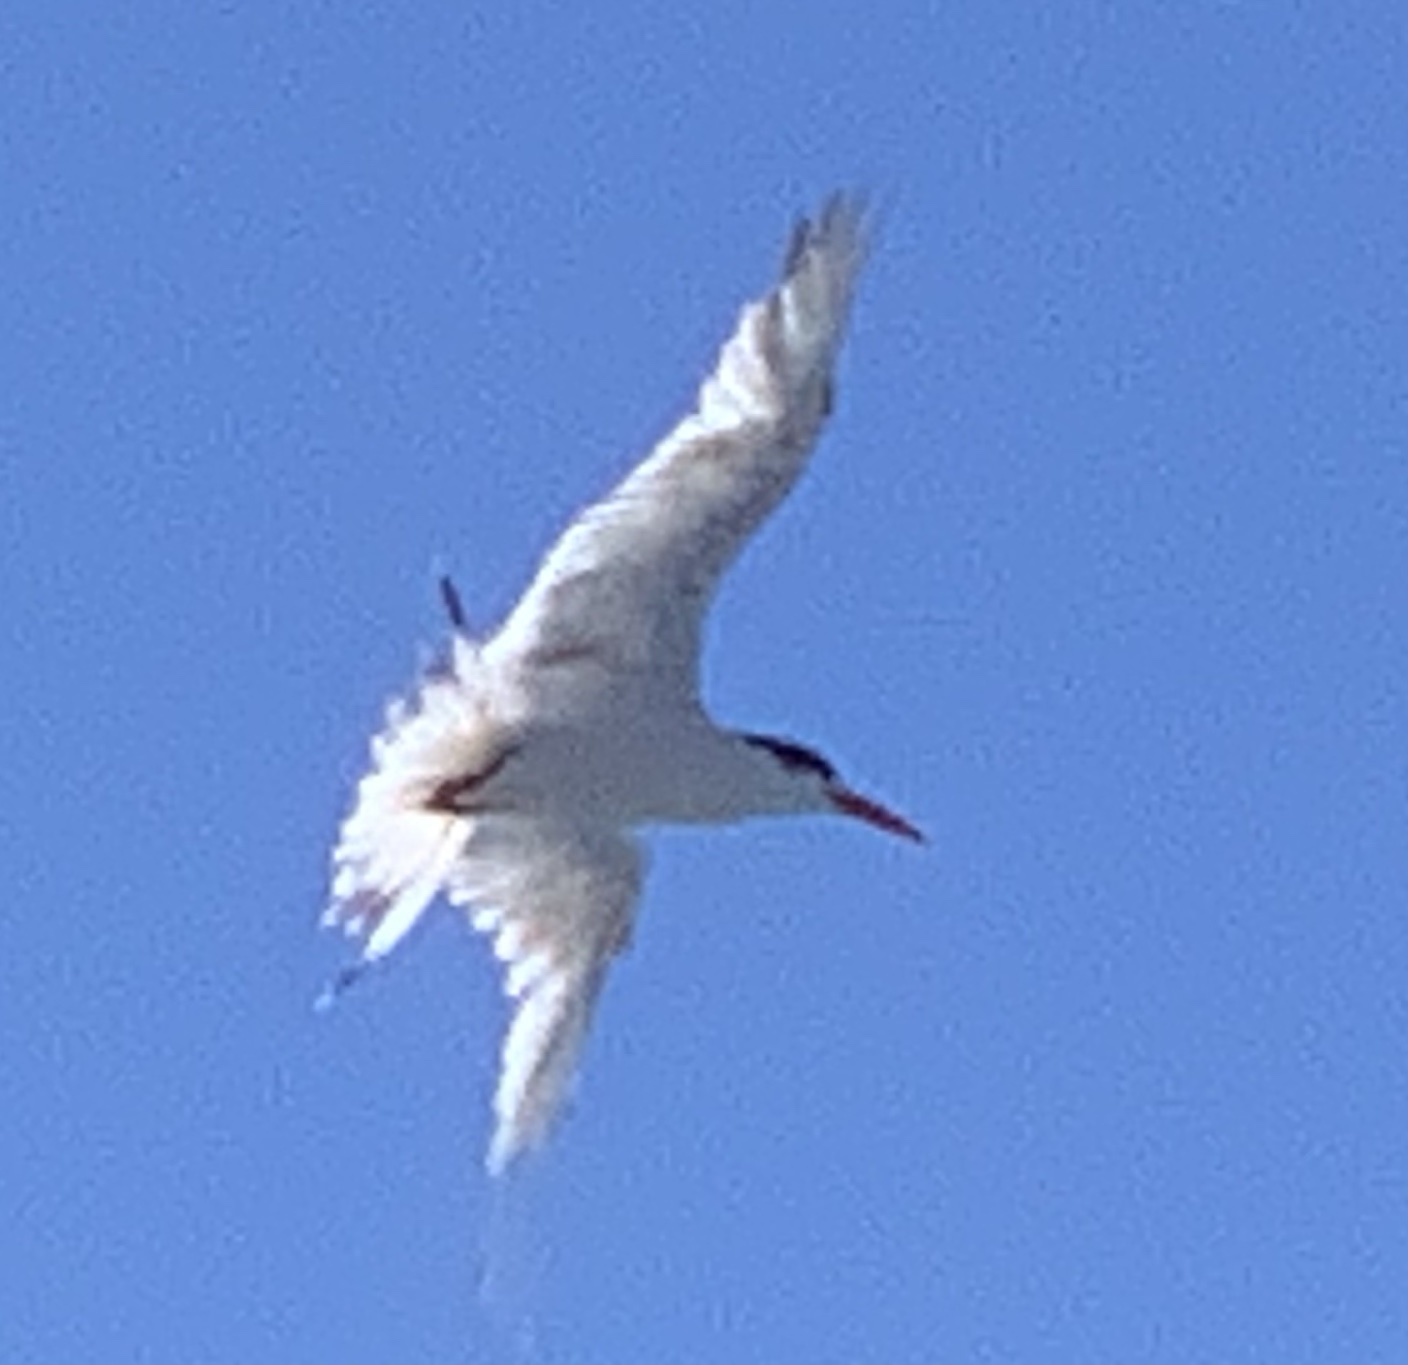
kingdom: Animalia
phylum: Chordata
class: Aves
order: Charadriiformes
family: Laridae
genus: Thalasseus
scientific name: Thalasseus elegans
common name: Elegant tern
